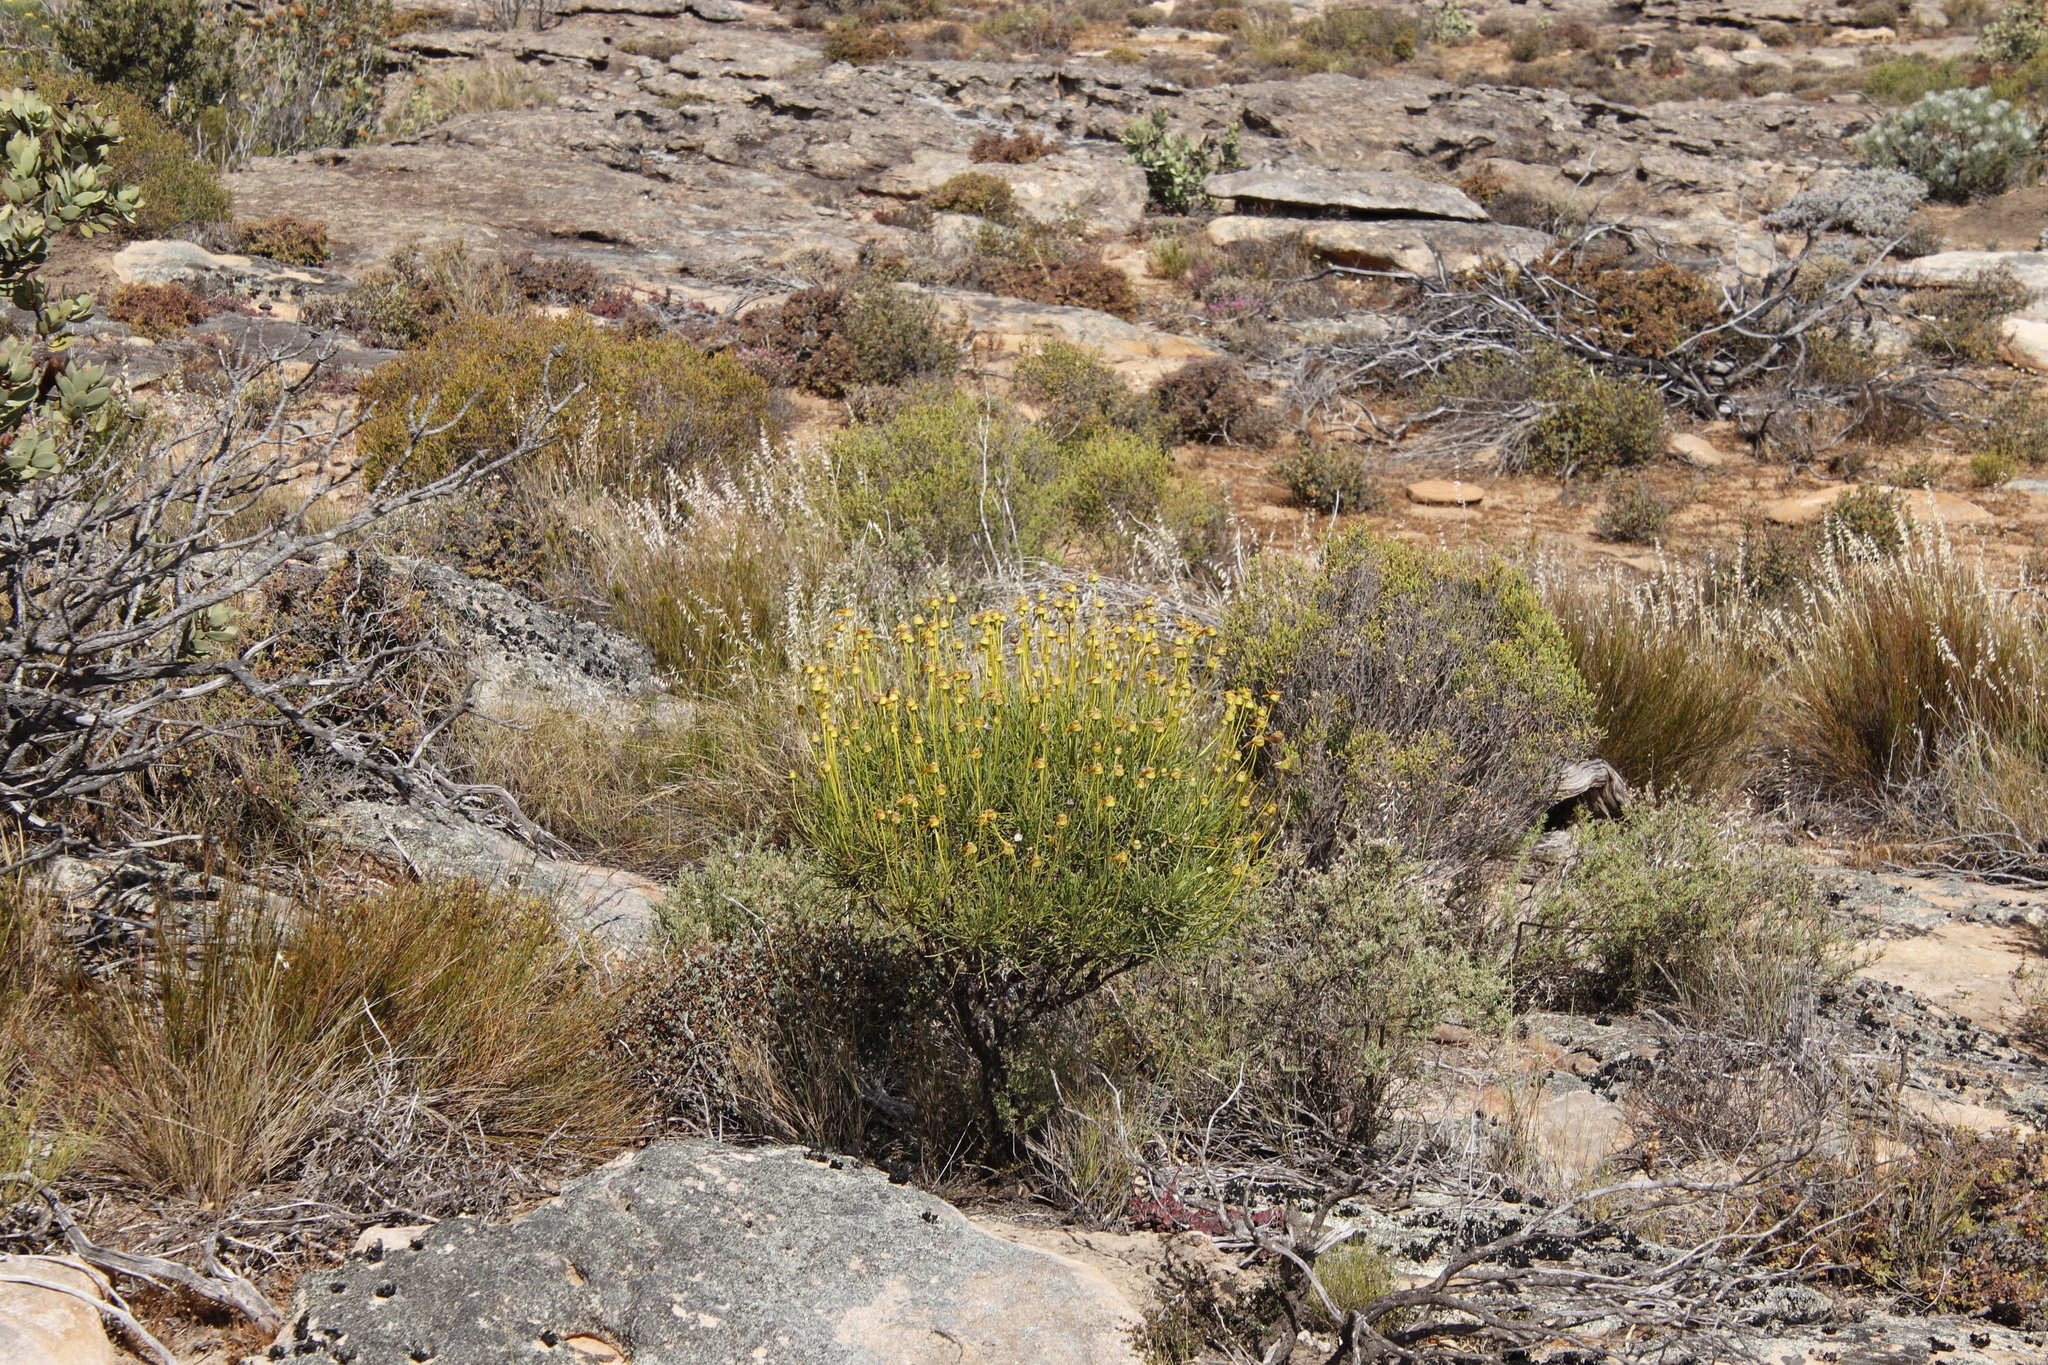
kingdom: Plantae
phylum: Tracheophyta
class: Magnoliopsida
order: Asterales
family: Asteraceae
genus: Euryops
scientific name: Euryops speciosissimus
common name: Clanwilliam daisy
